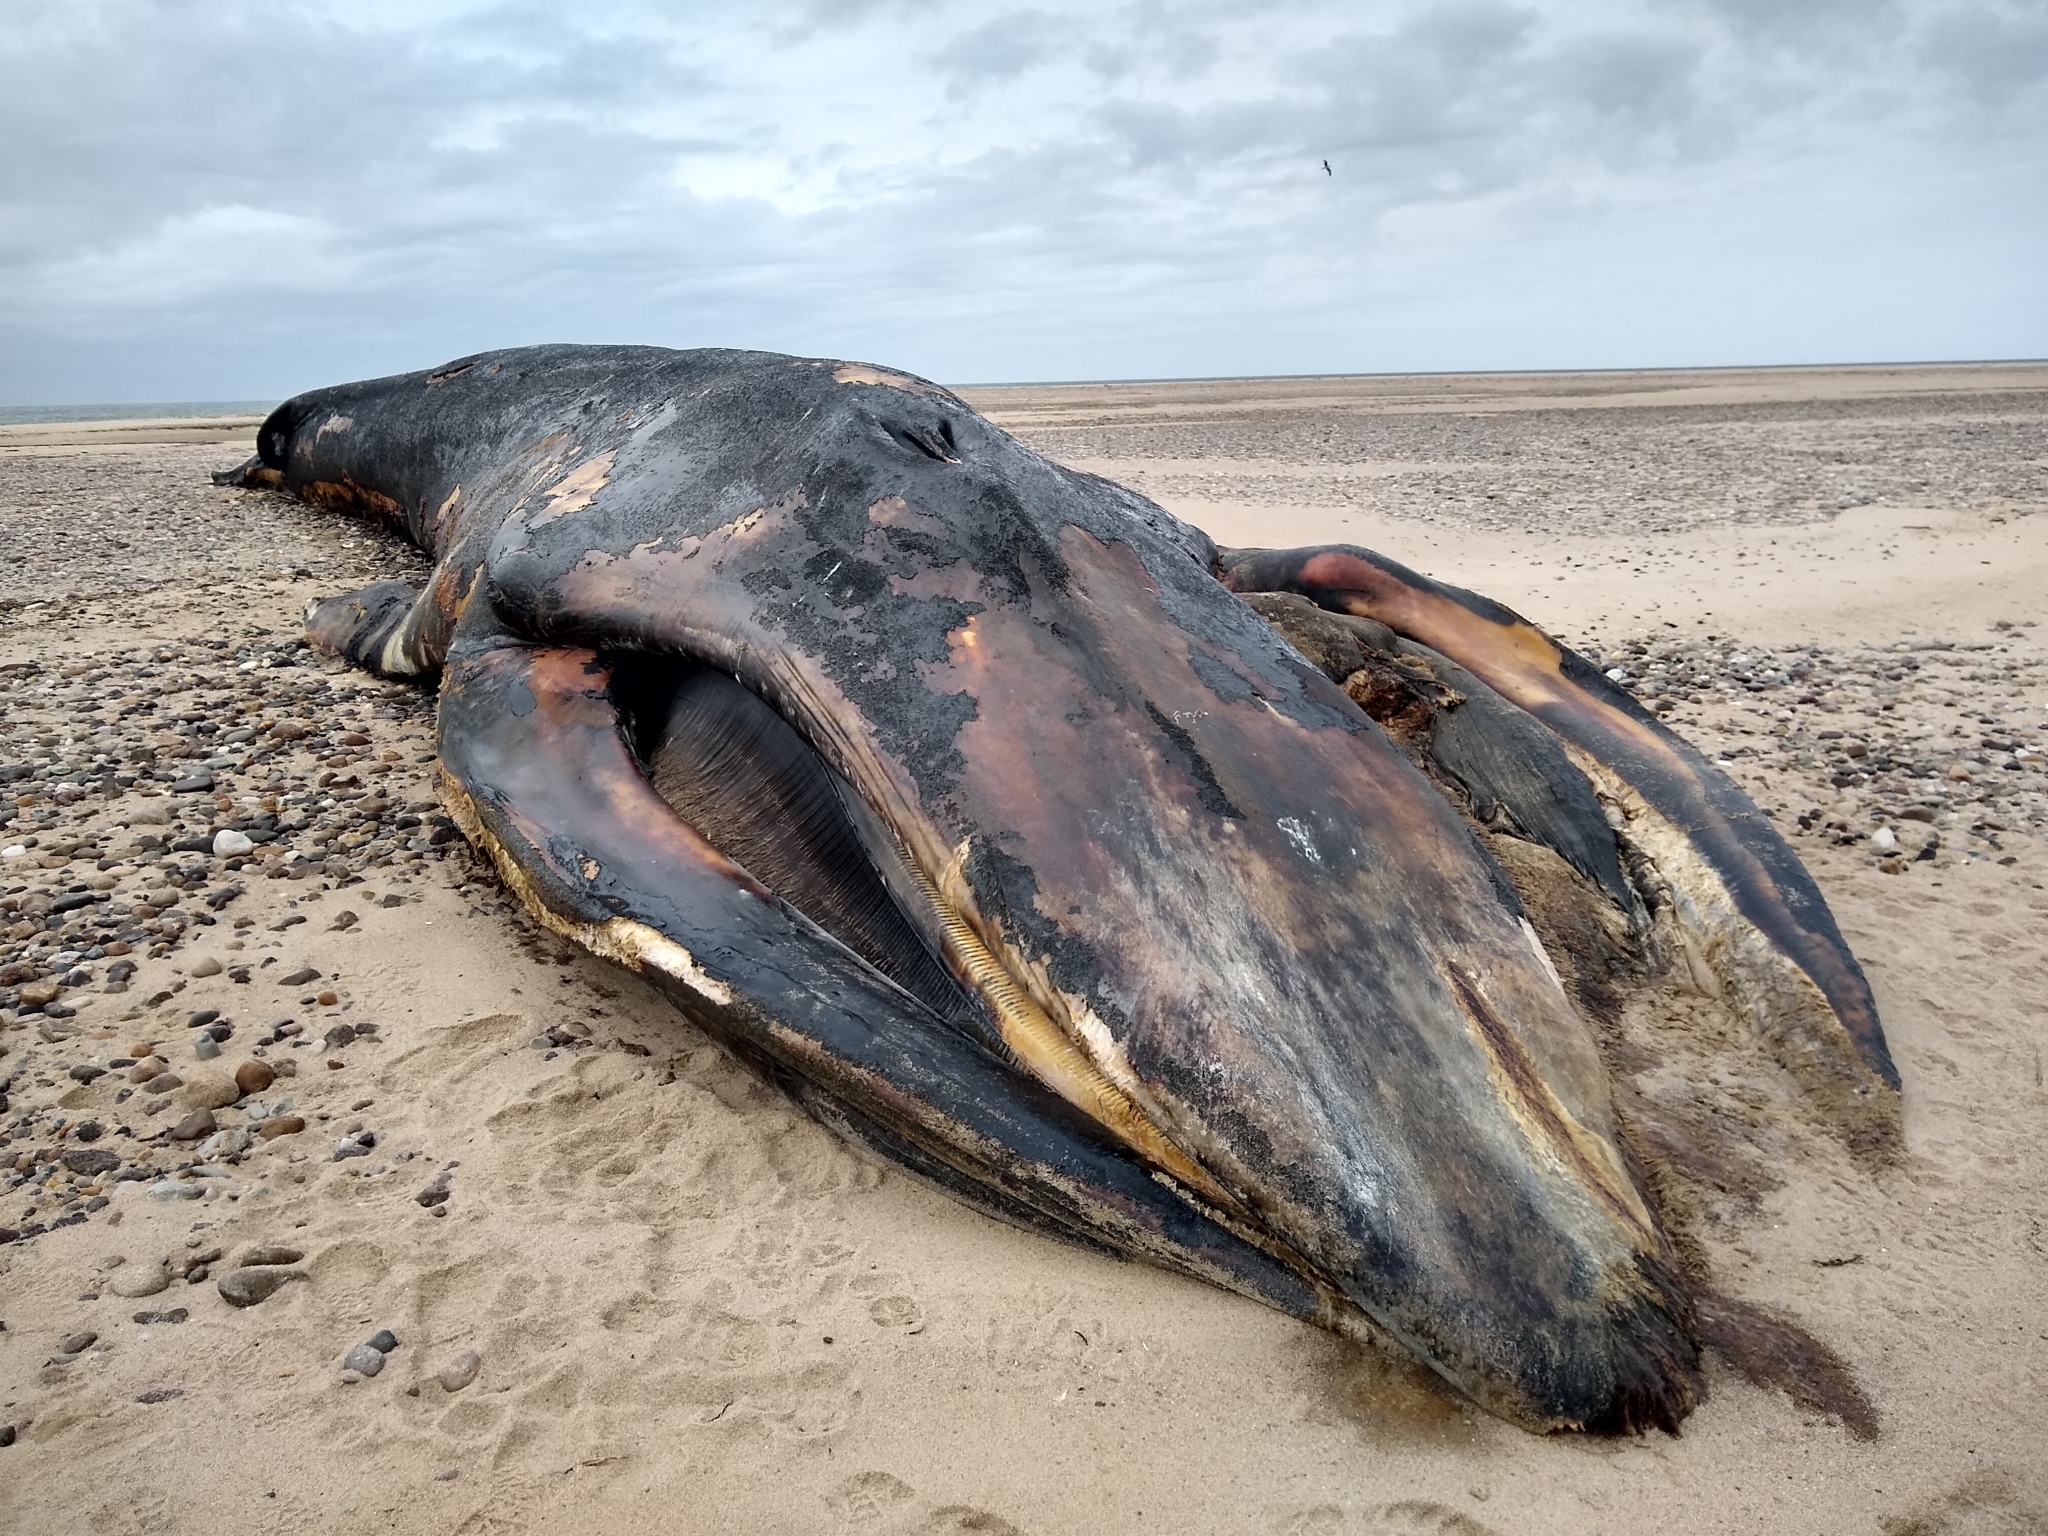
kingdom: Animalia
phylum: Chordata
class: Mammalia
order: Cetacea
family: Balaenopteridae
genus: Balaenoptera
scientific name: Balaenoptera physalus
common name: Fin whale
